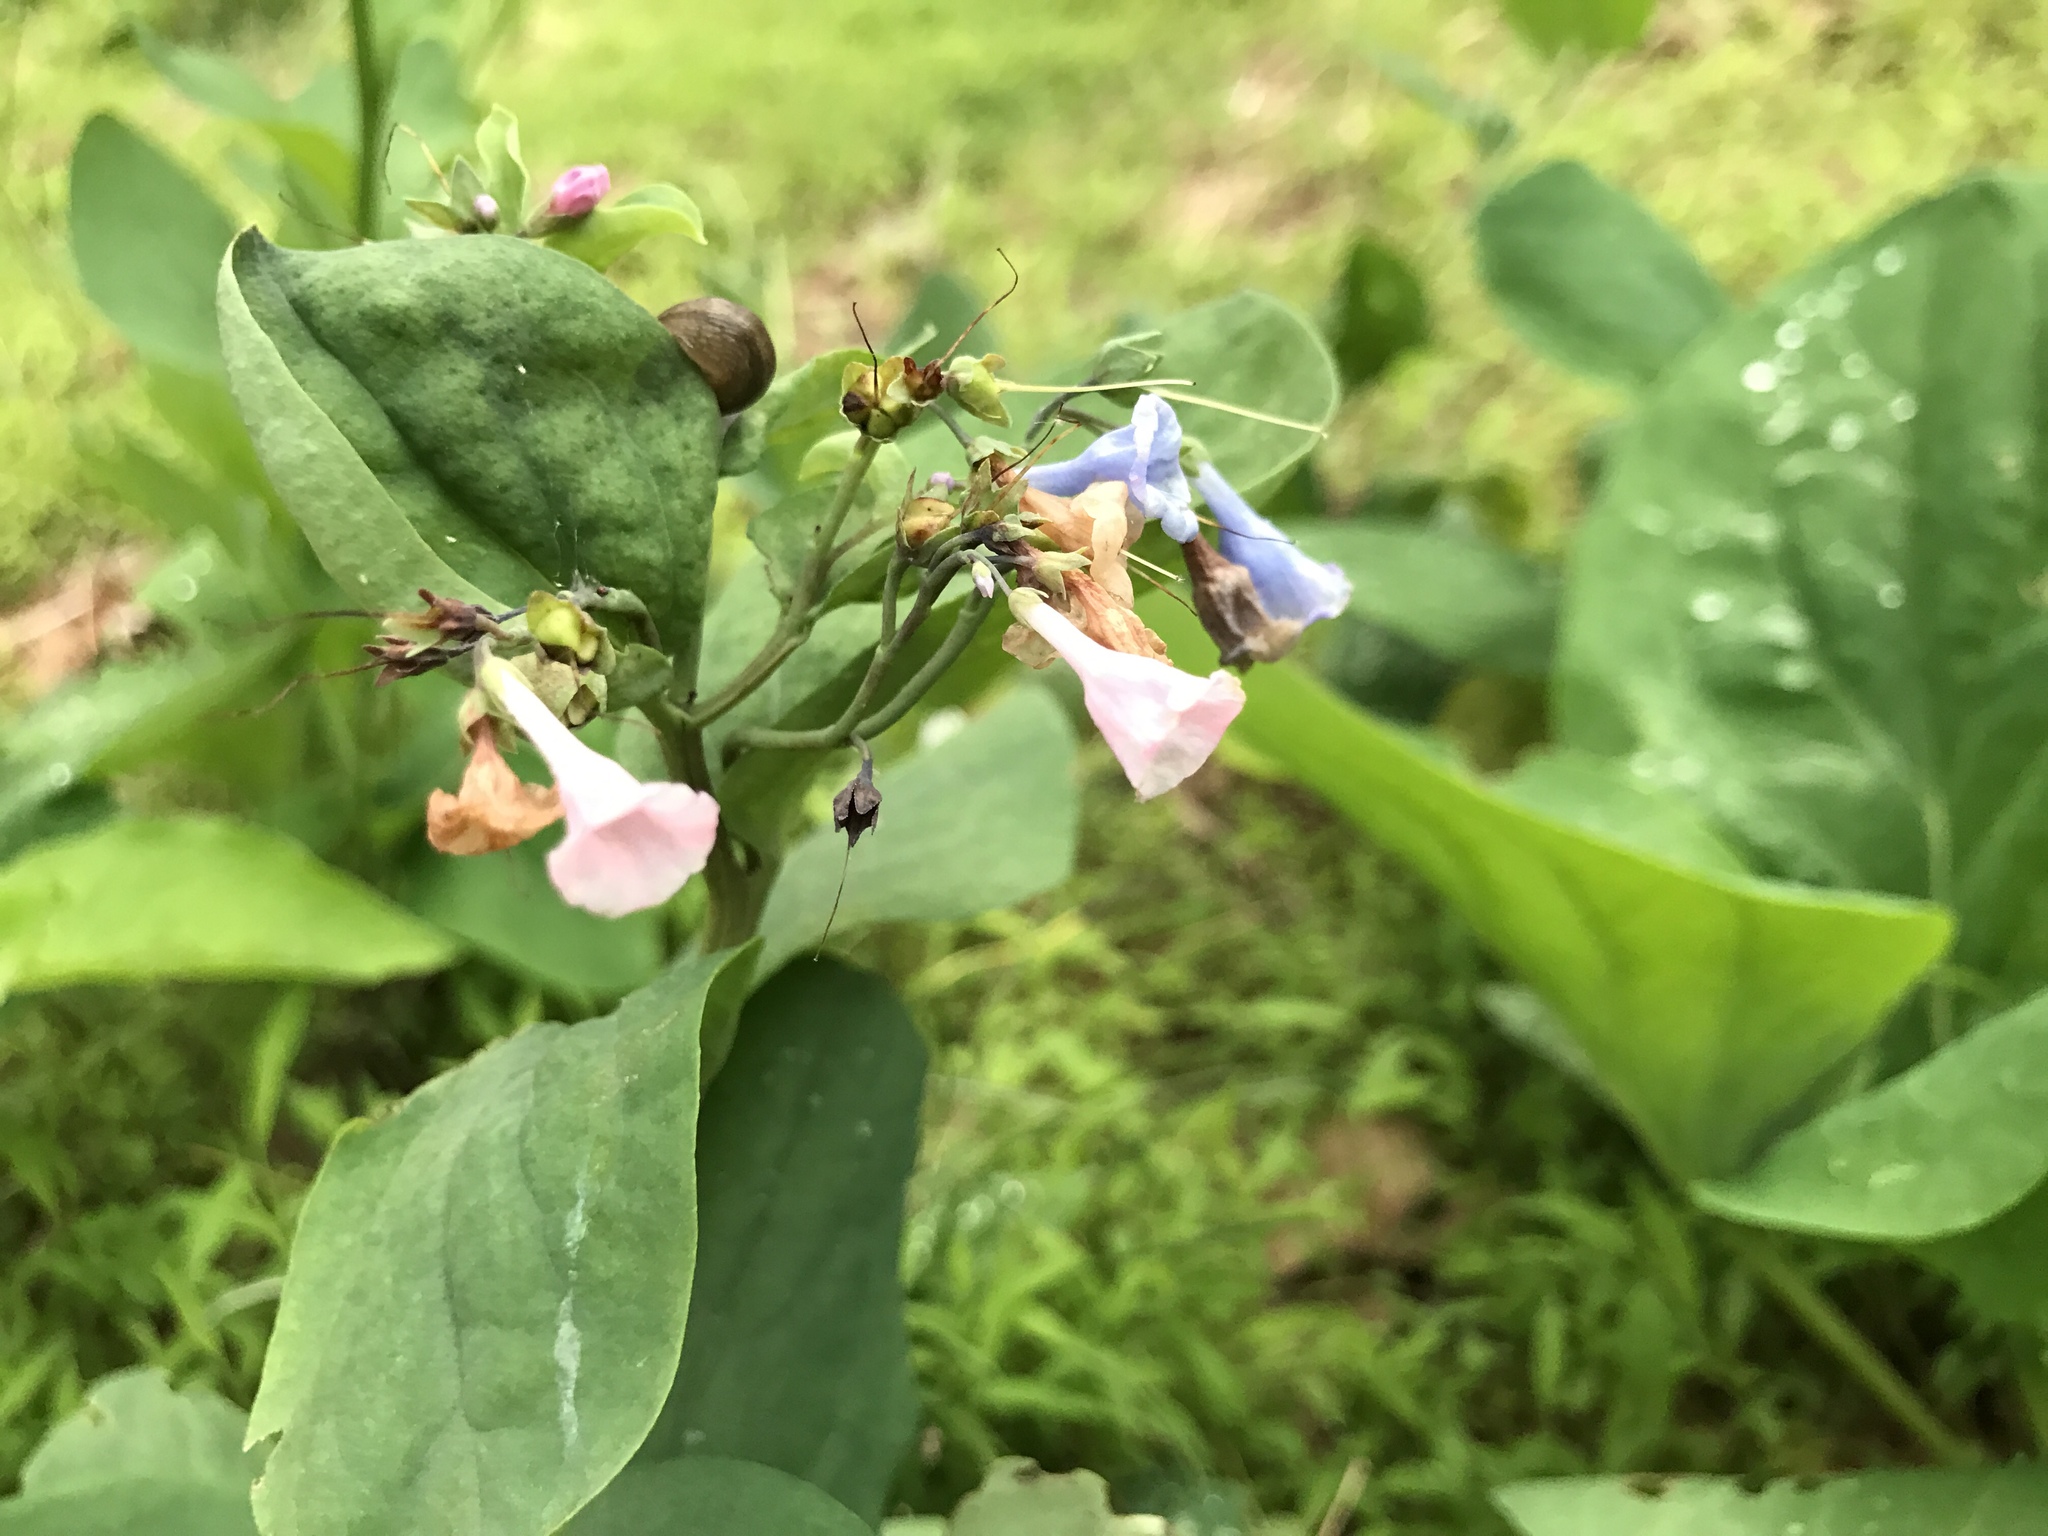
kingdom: Plantae
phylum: Tracheophyta
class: Magnoliopsida
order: Boraginales
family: Boraginaceae
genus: Mertensia
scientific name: Mertensia virginica
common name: Virginia bluebells
